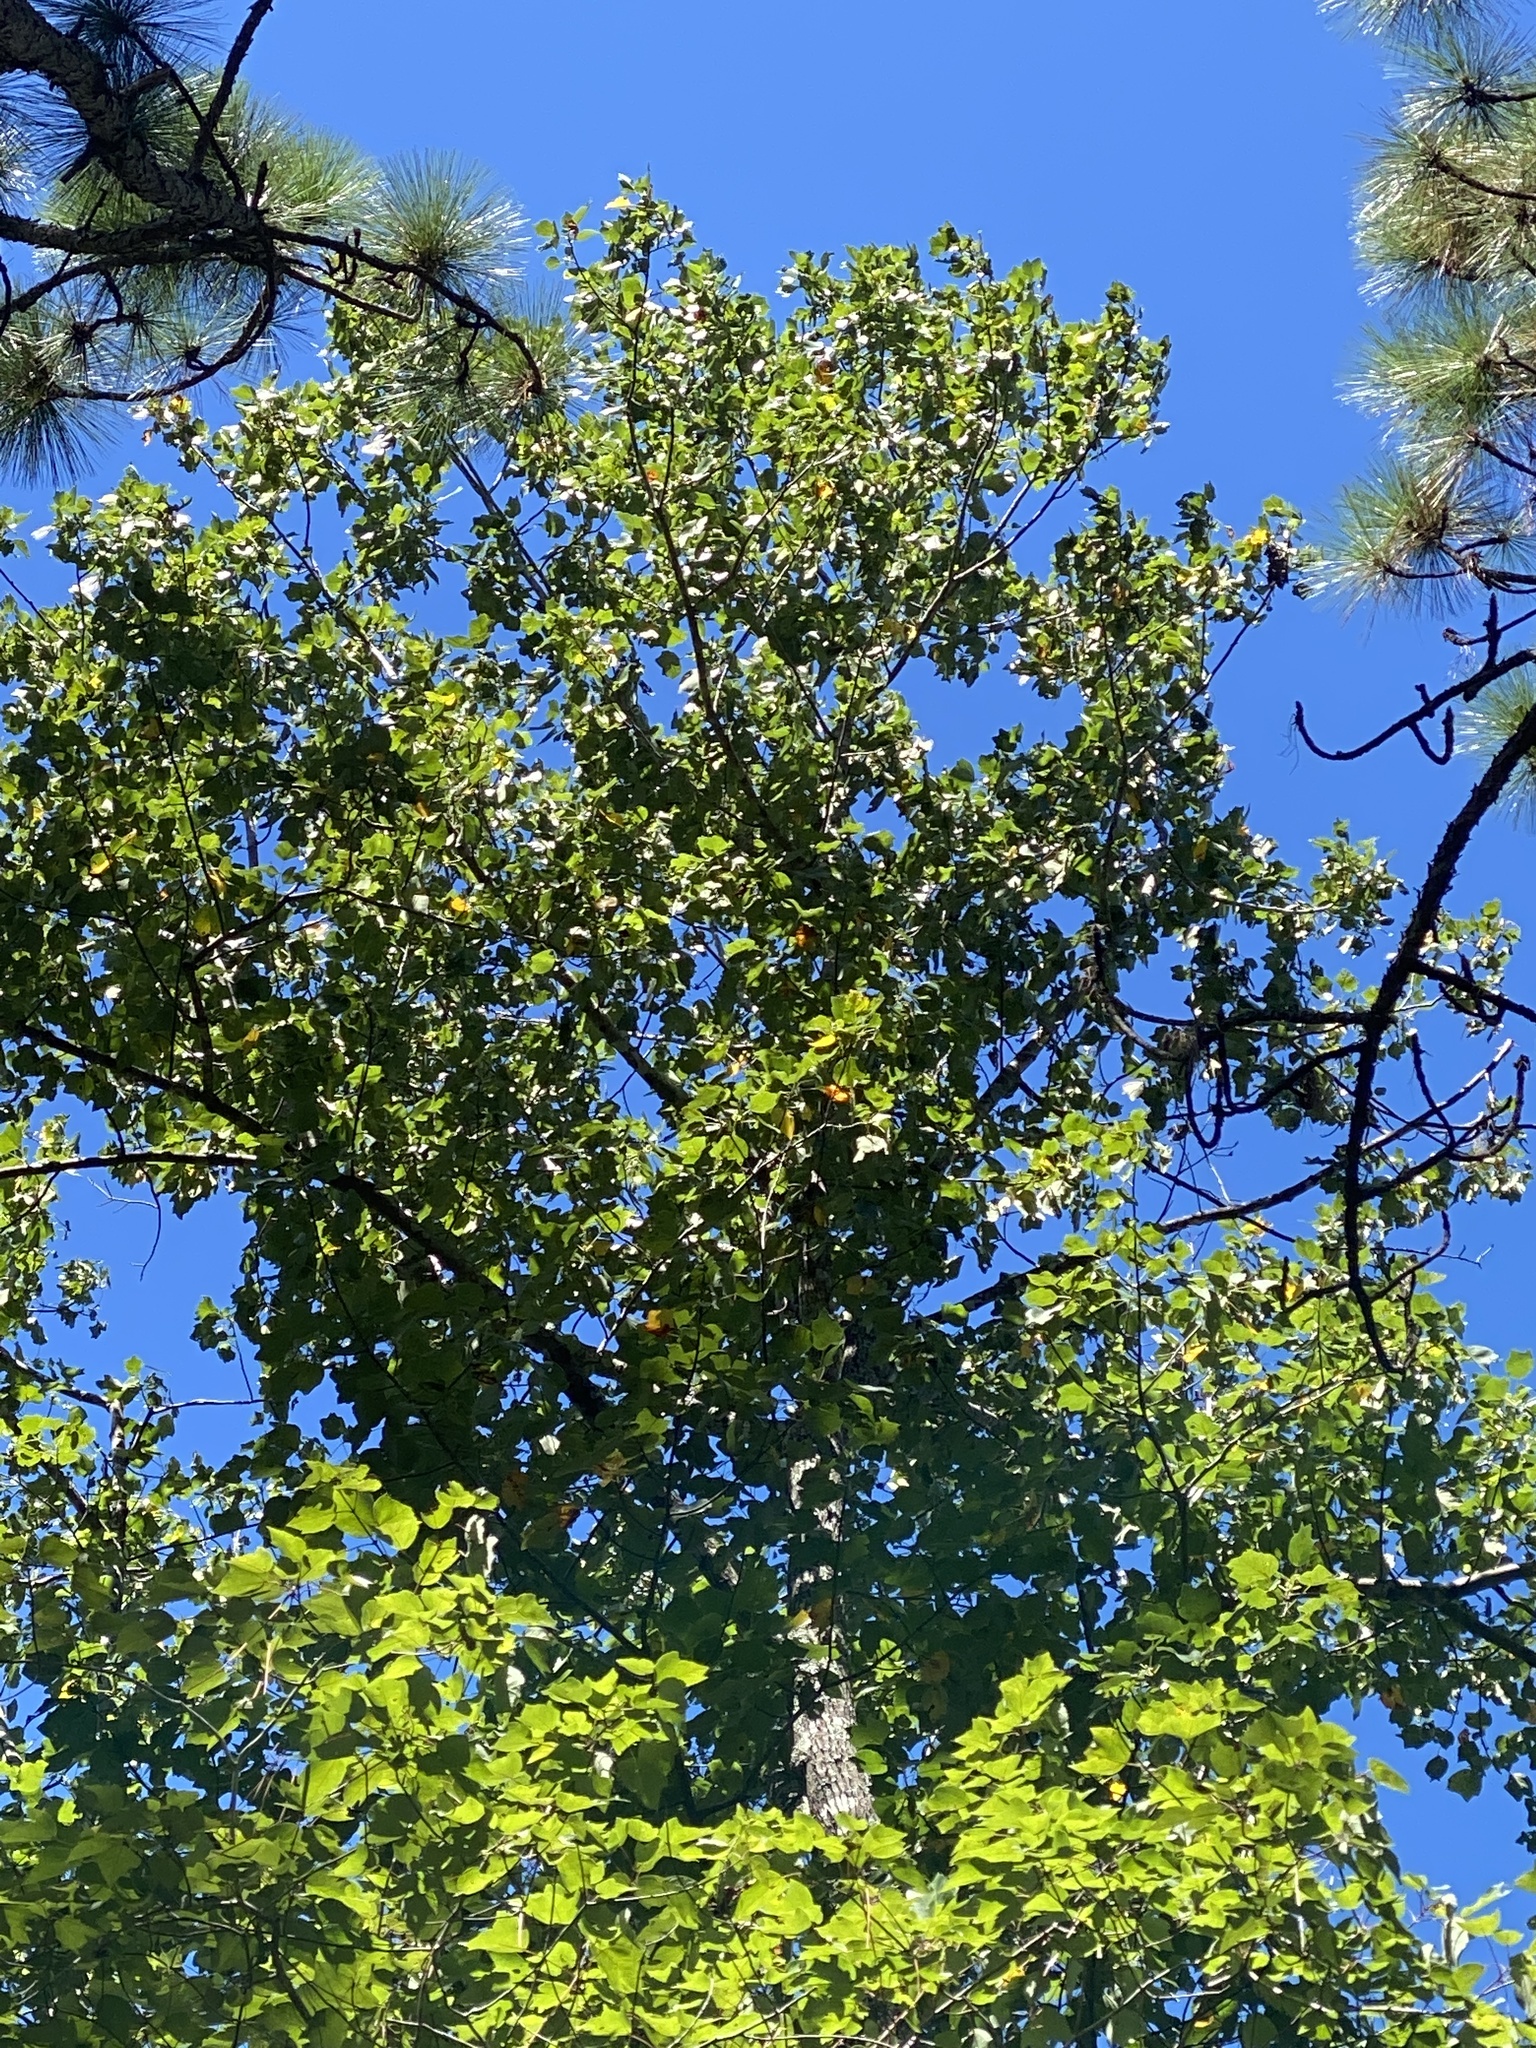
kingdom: Plantae
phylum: Tracheophyta
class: Magnoliopsida
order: Magnoliales
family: Magnoliaceae
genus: Liriodendron
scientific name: Liriodendron tulipifera
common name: Tulip tree
